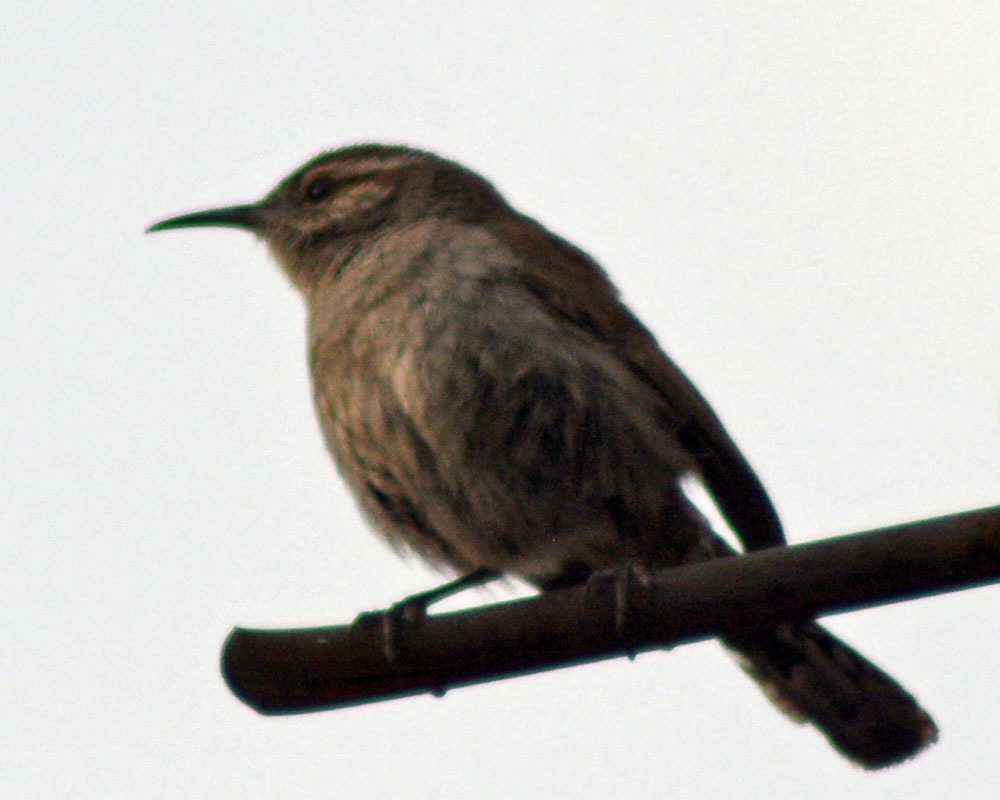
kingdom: Animalia
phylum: Chordata
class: Aves
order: Passeriformes
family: Troglodytidae
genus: Thryomanes
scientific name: Thryomanes bewickii
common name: Bewick's wren
